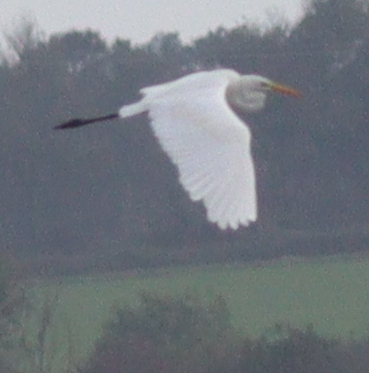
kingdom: Animalia
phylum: Chordata
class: Aves
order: Pelecaniformes
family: Ardeidae
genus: Ardea
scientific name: Ardea alba
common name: Great egret
